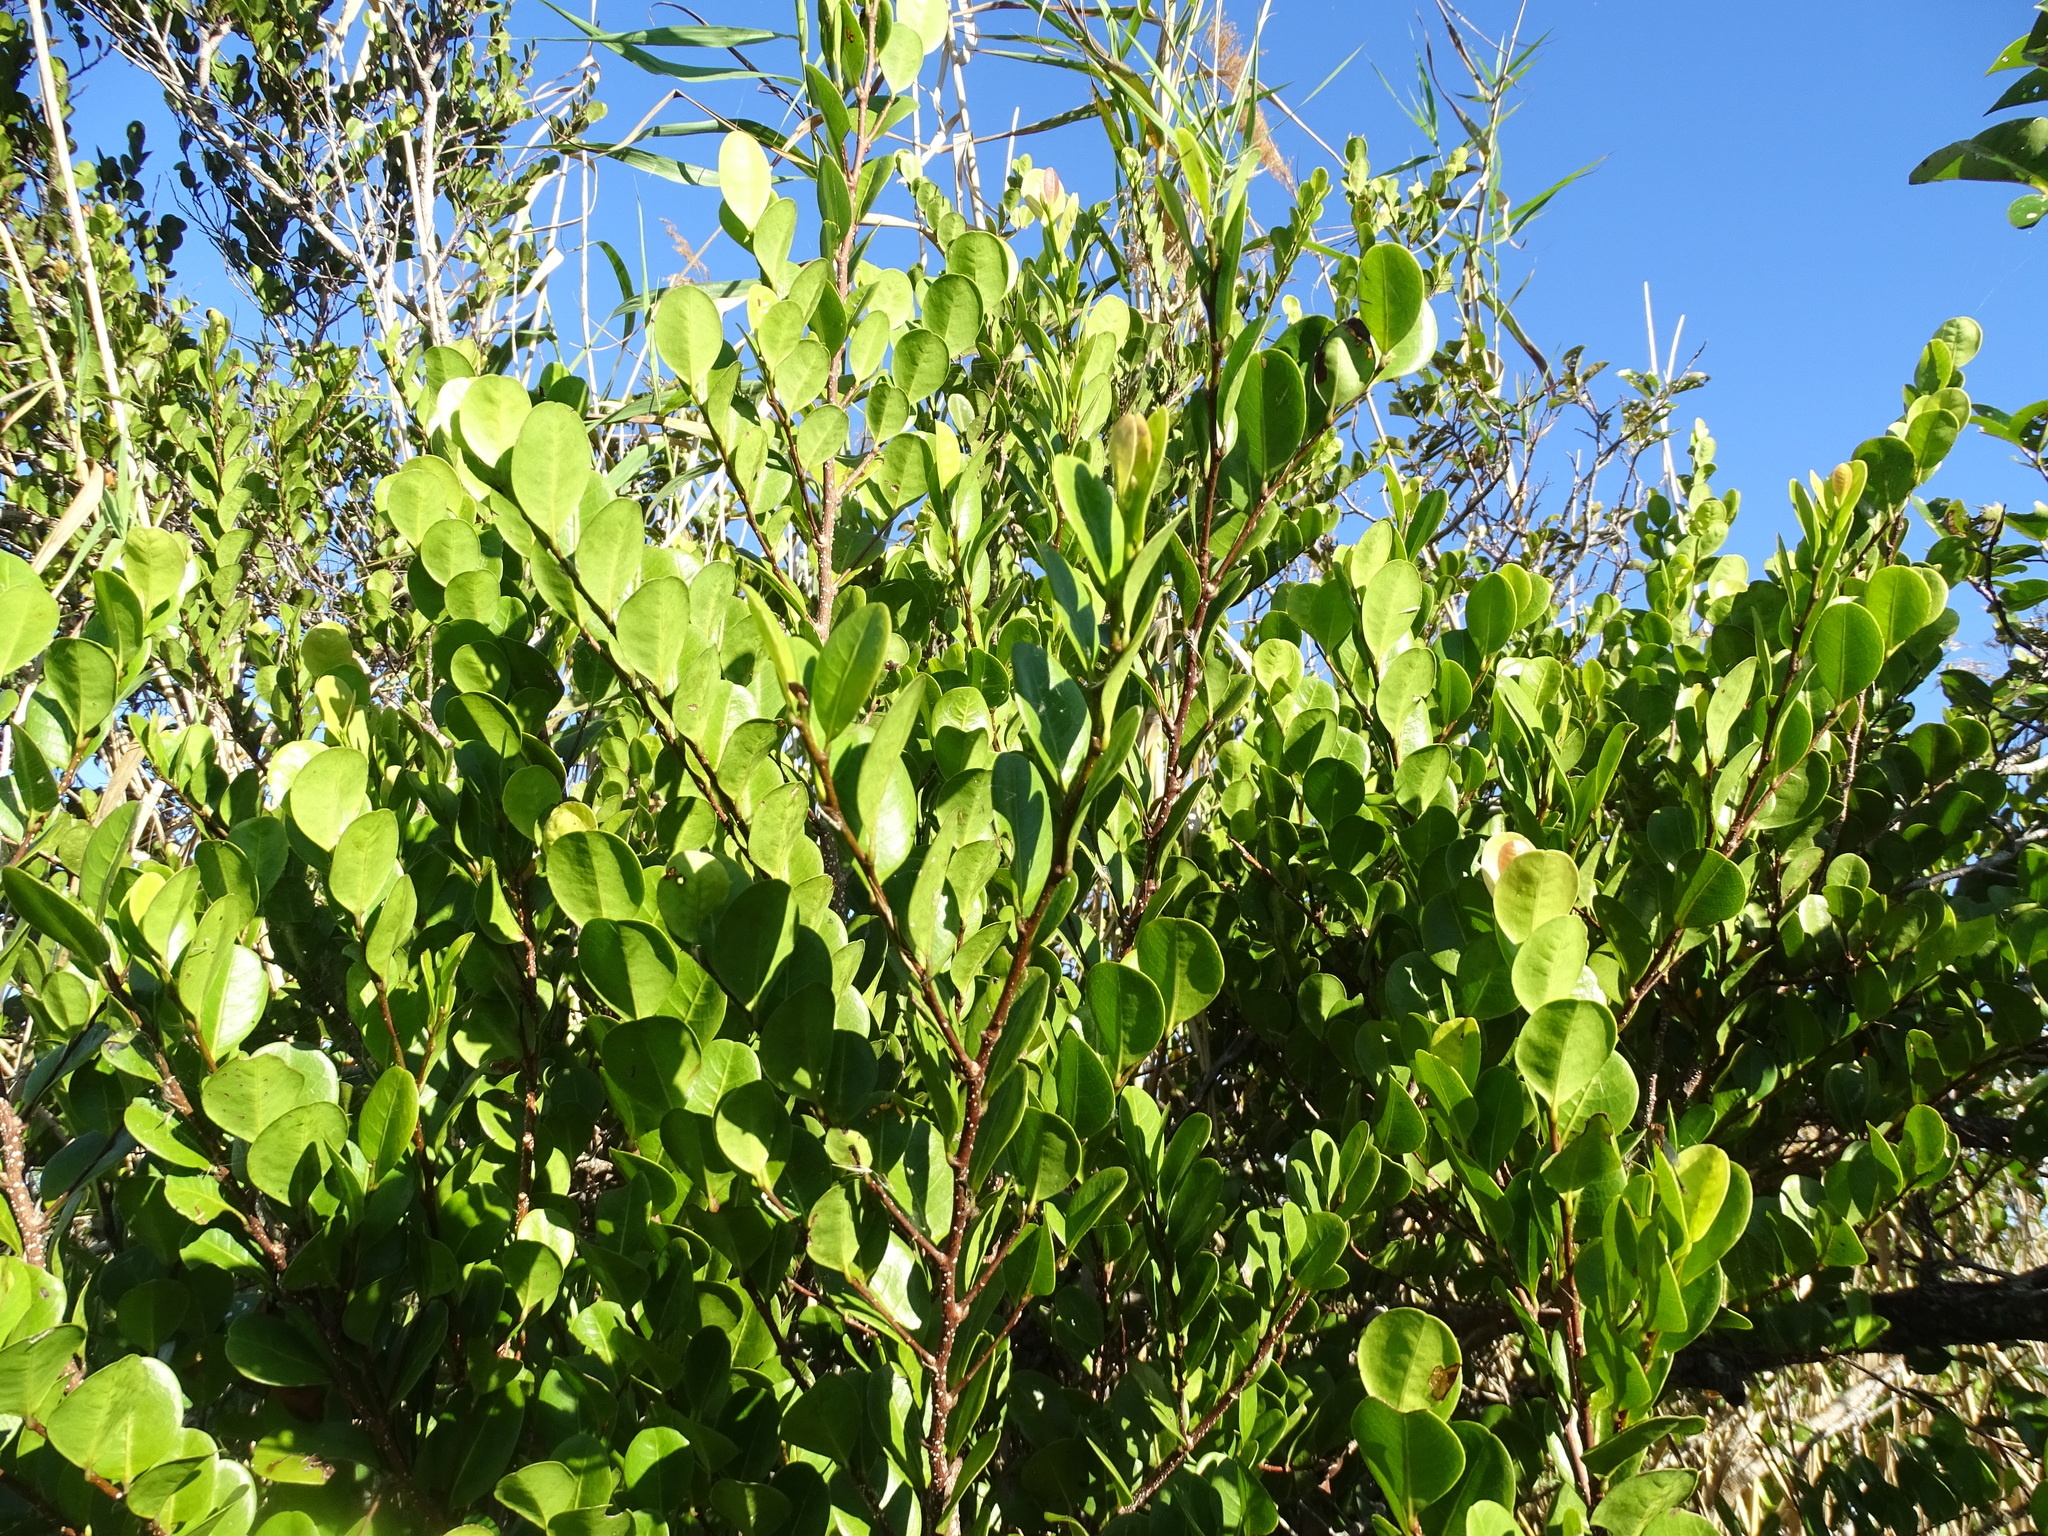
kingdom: Plantae
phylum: Tracheophyta
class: Magnoliopsida
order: Malpighiales
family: Chrysobalanaceae
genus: Chrysobalanus
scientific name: Chrysobalanus icaco
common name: Coco plum
